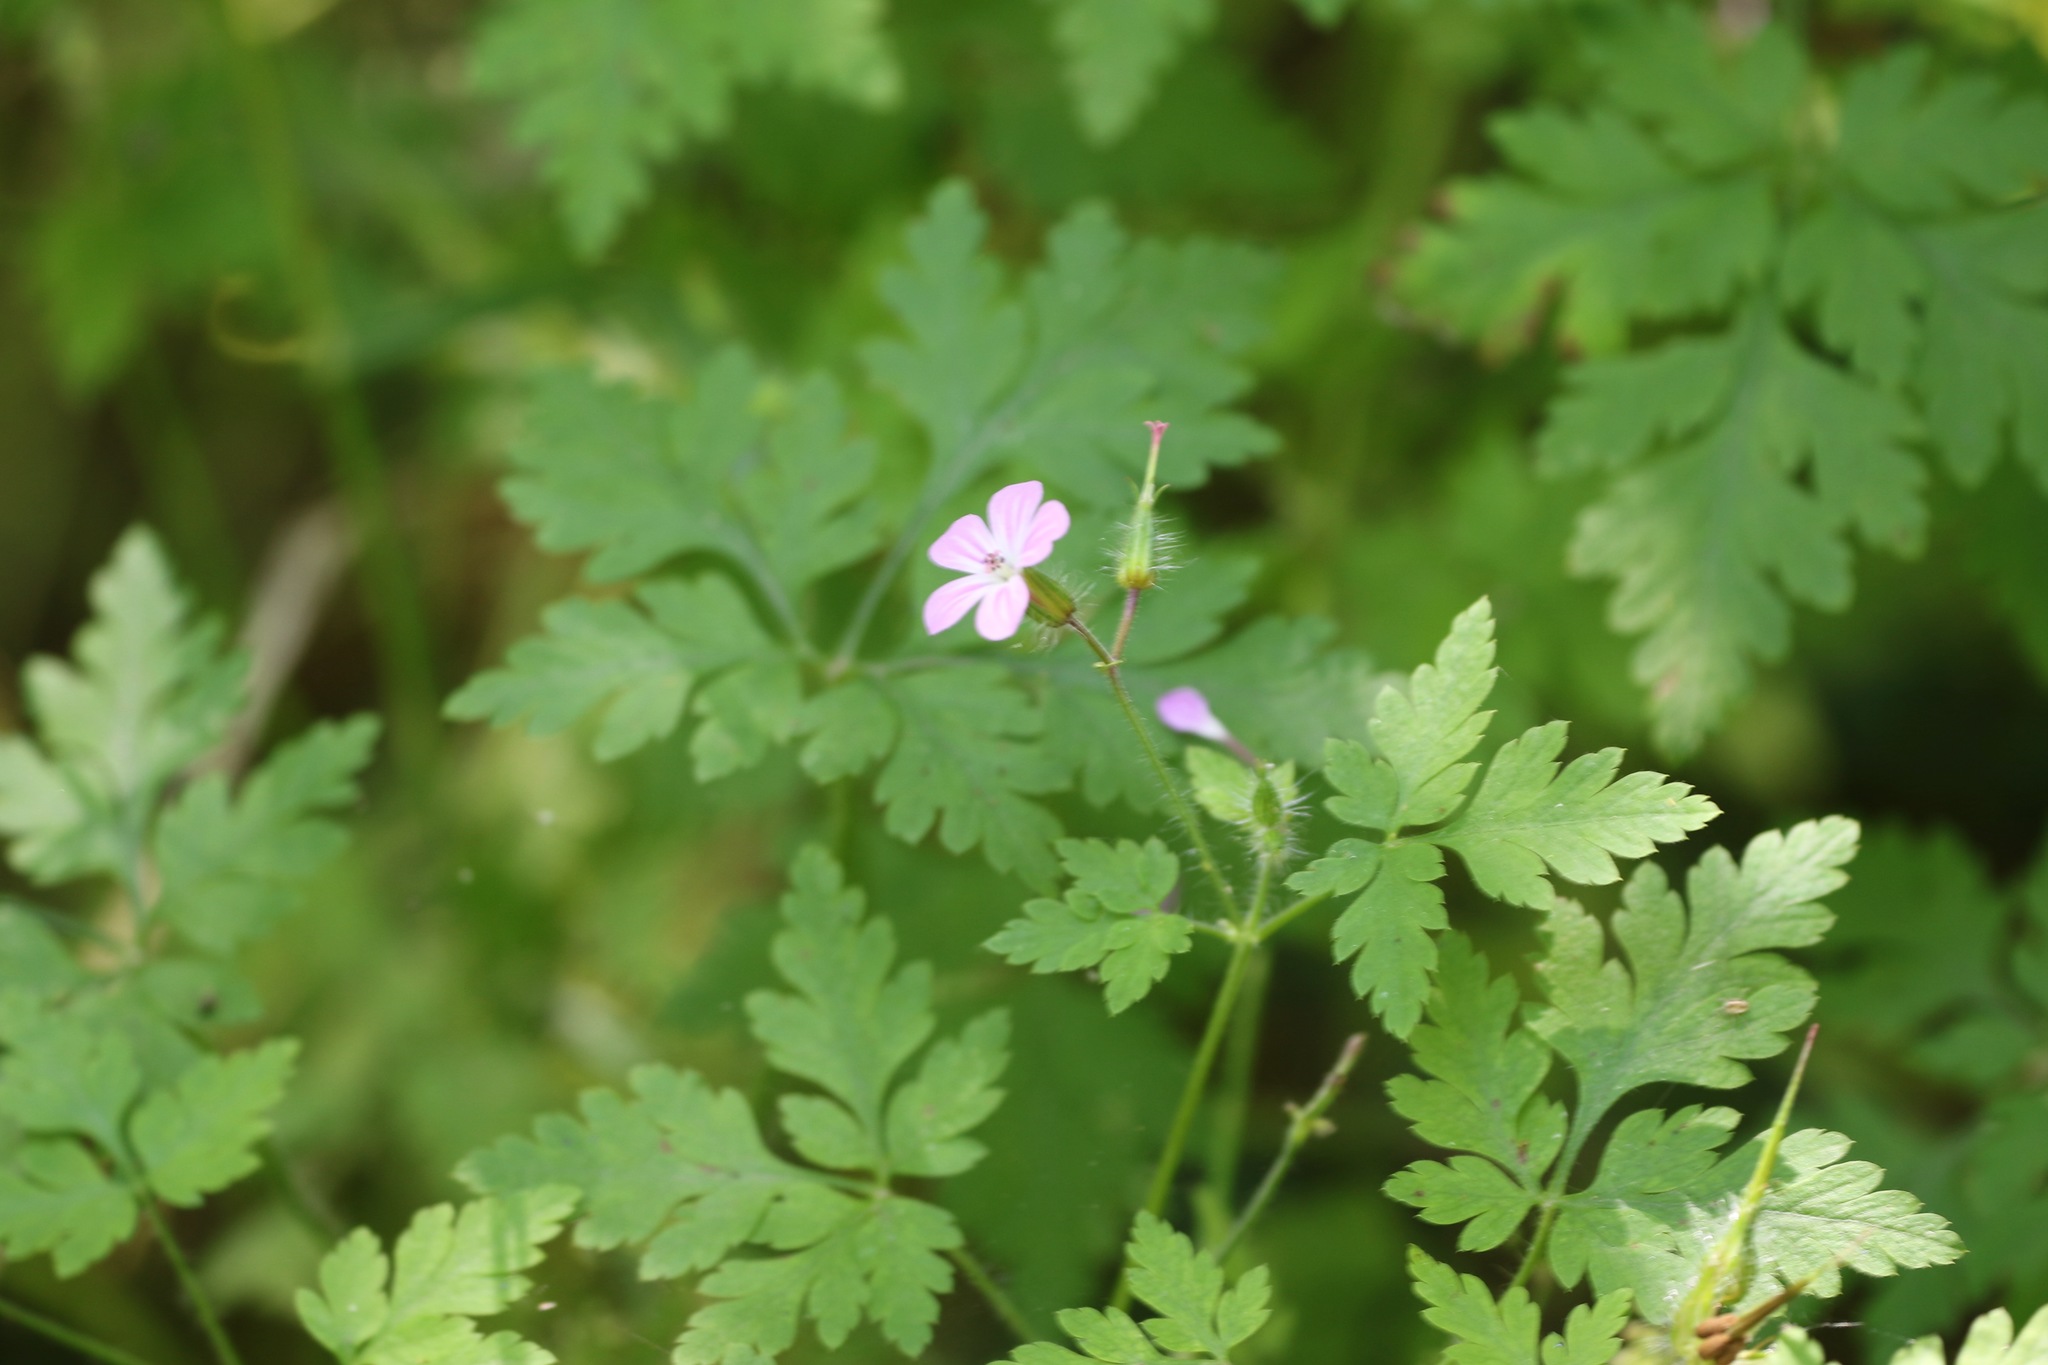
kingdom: Plantae
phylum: Tracheophyta
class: Magnoliopsida
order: Geraniales
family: Geraniaceae
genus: Geranium
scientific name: Geranium robertianum
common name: Herb-robert
